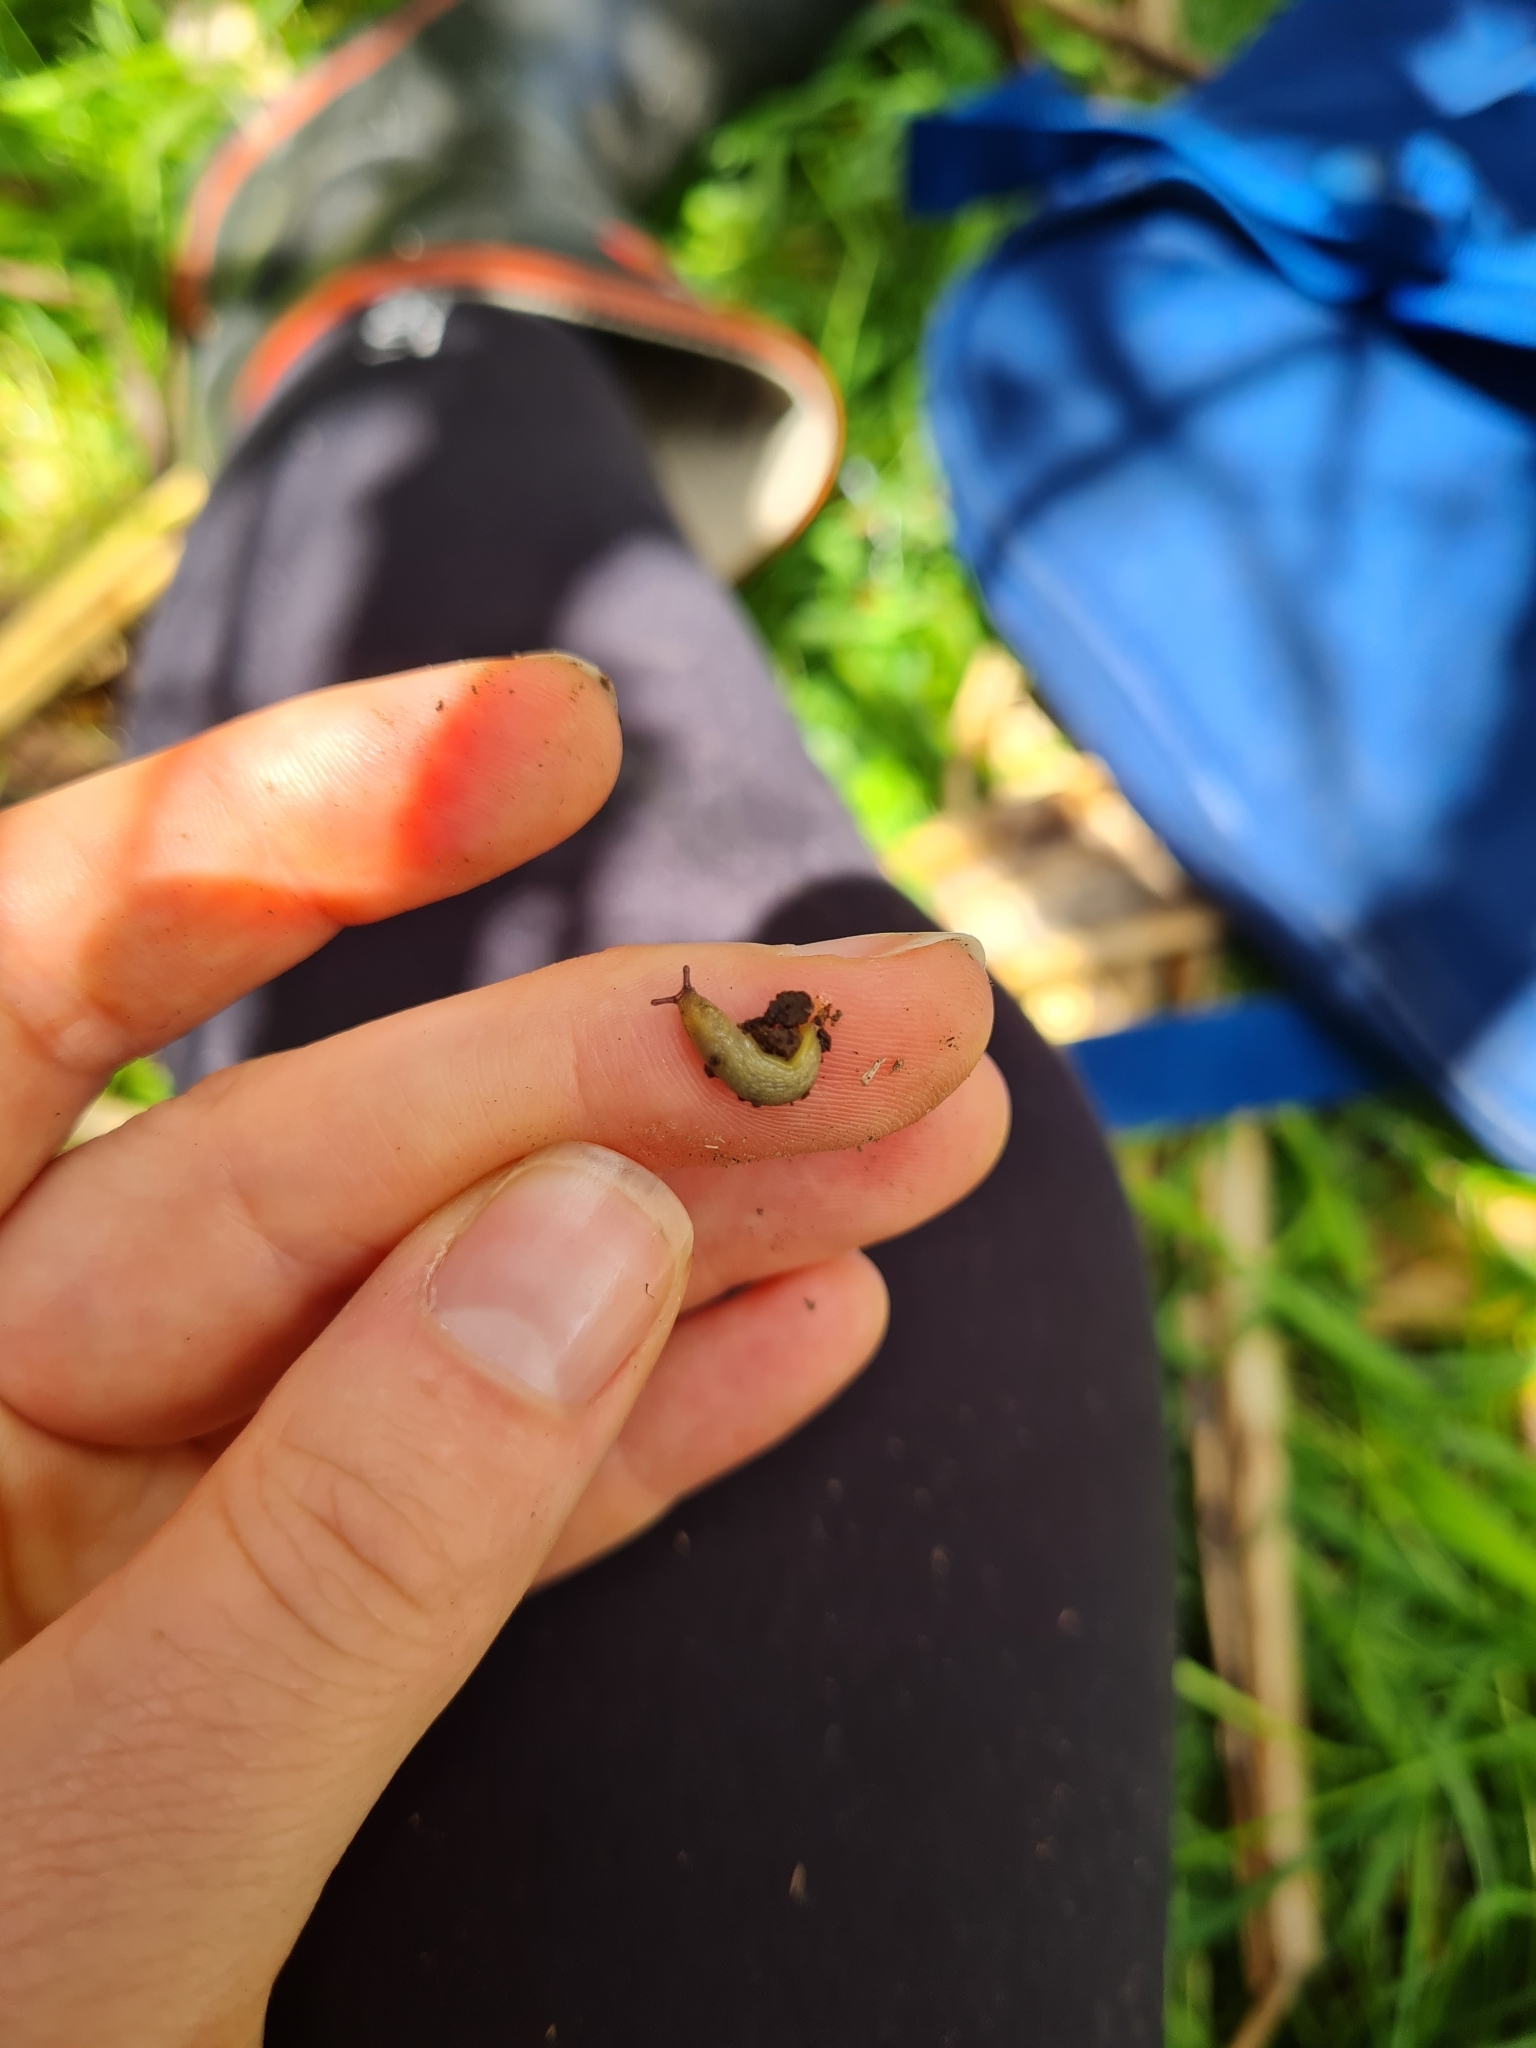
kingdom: Animalia
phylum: Mollusca
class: Gastropoda
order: Stylommatophora
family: Arionidae
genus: Arion
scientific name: Arion intermedius
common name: Hedgehog slug
